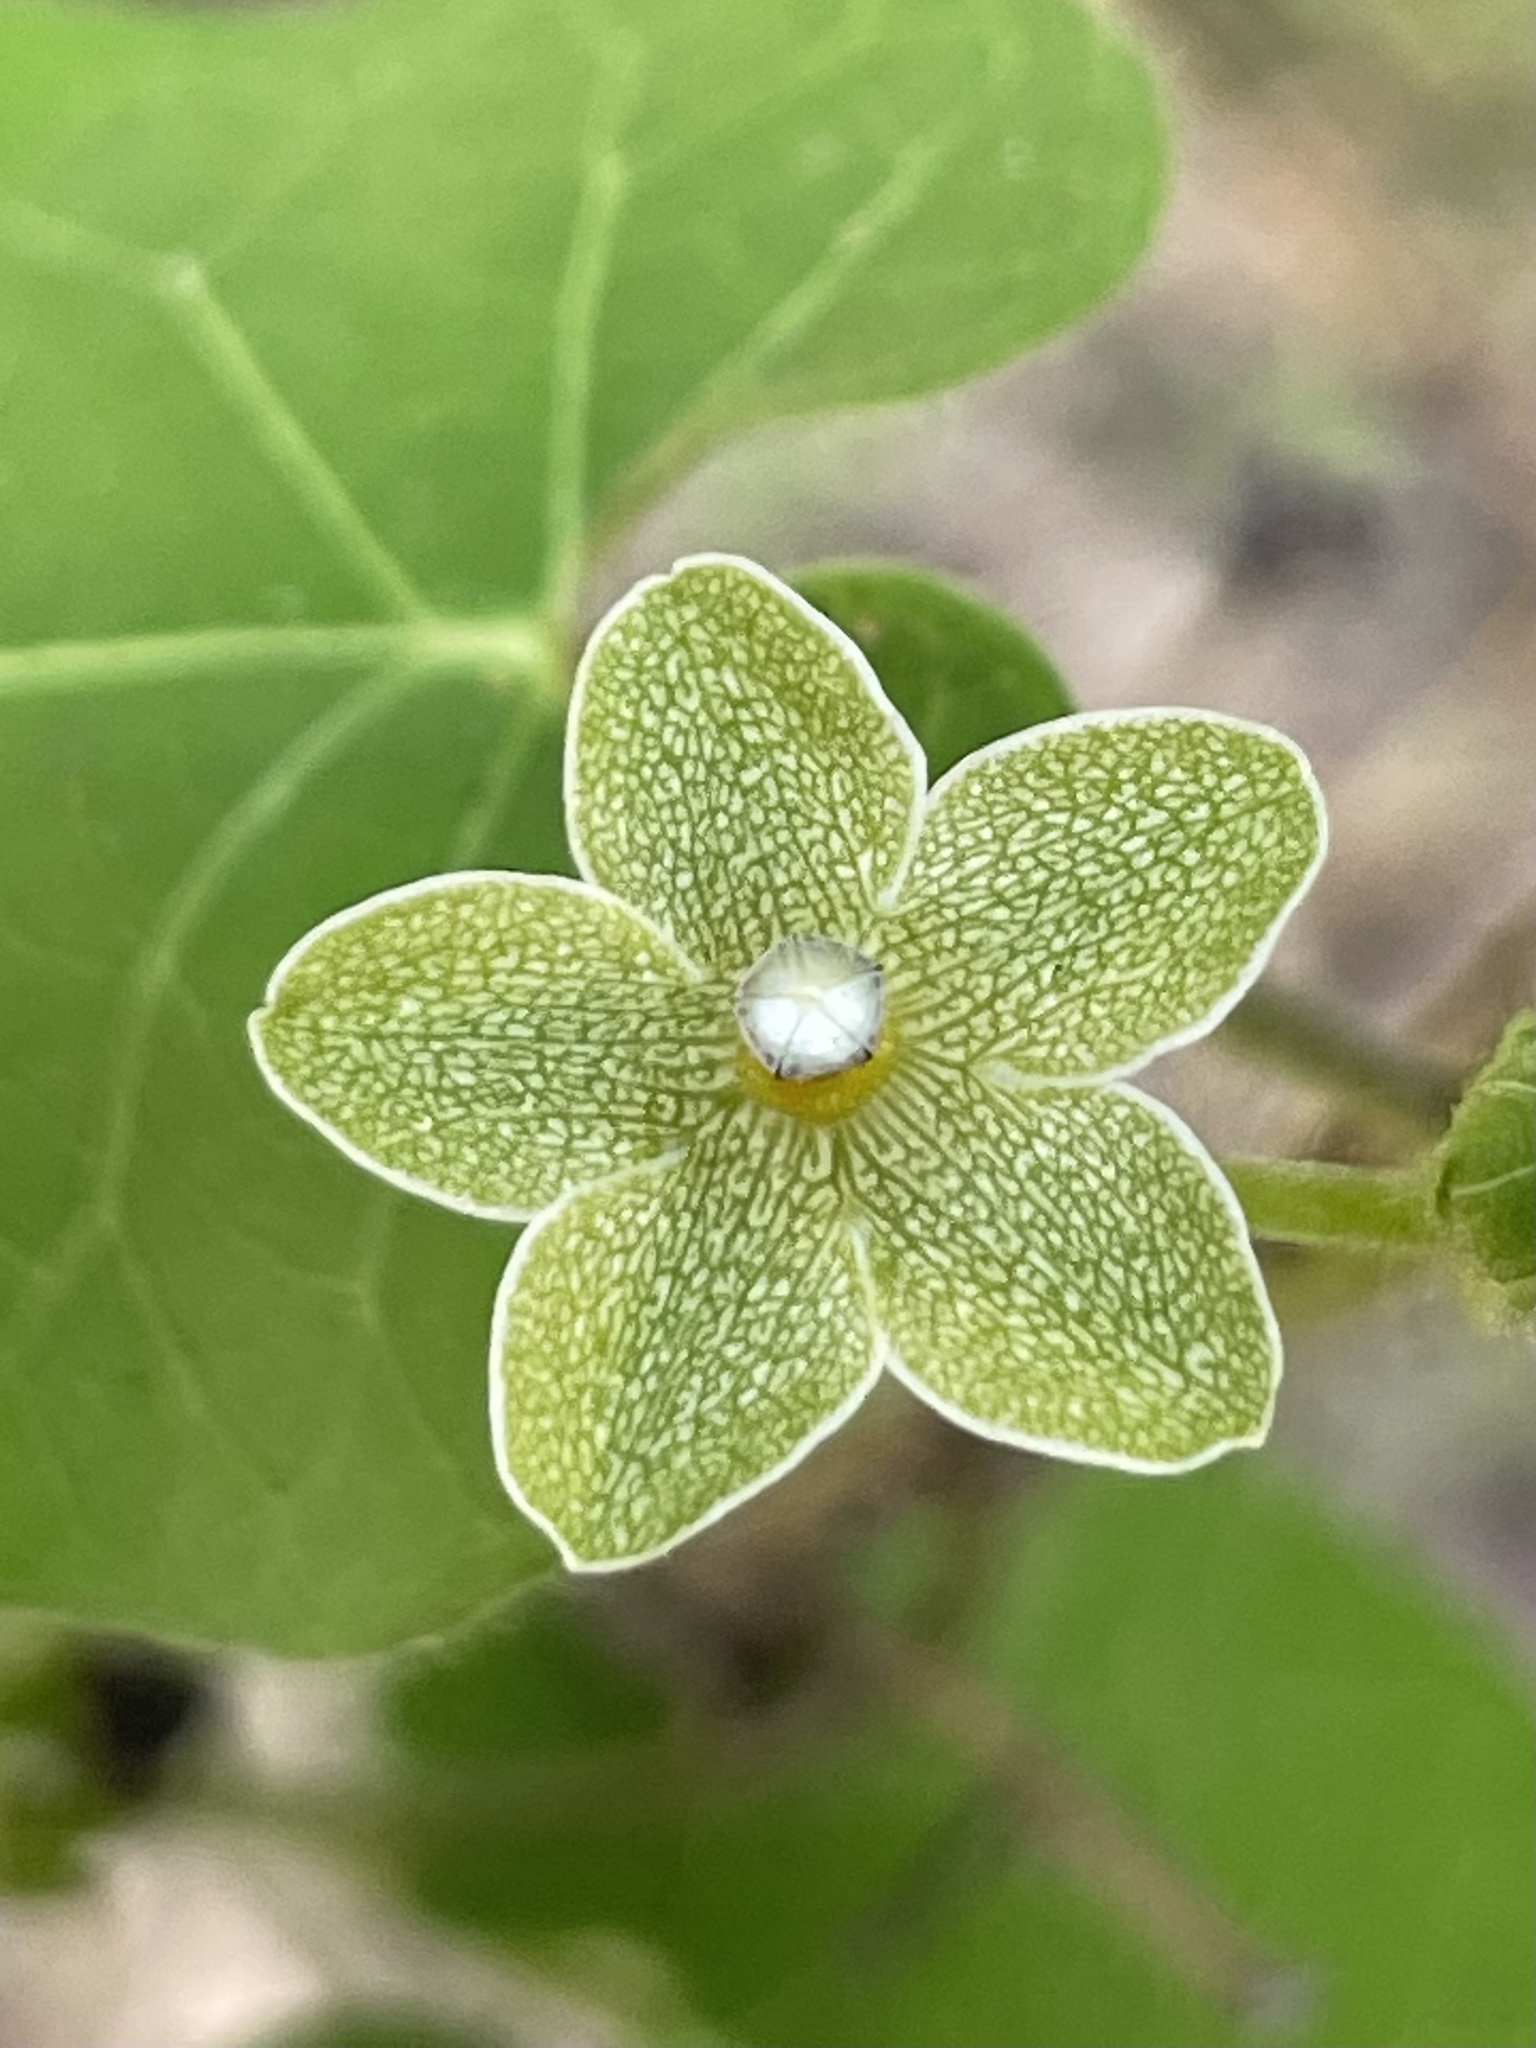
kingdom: Plantae
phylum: Tracheophyta
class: Magnoliopsida
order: Gentianales
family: Apocynaceae
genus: Dictyanthus
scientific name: Dictyanthus reticulatus
